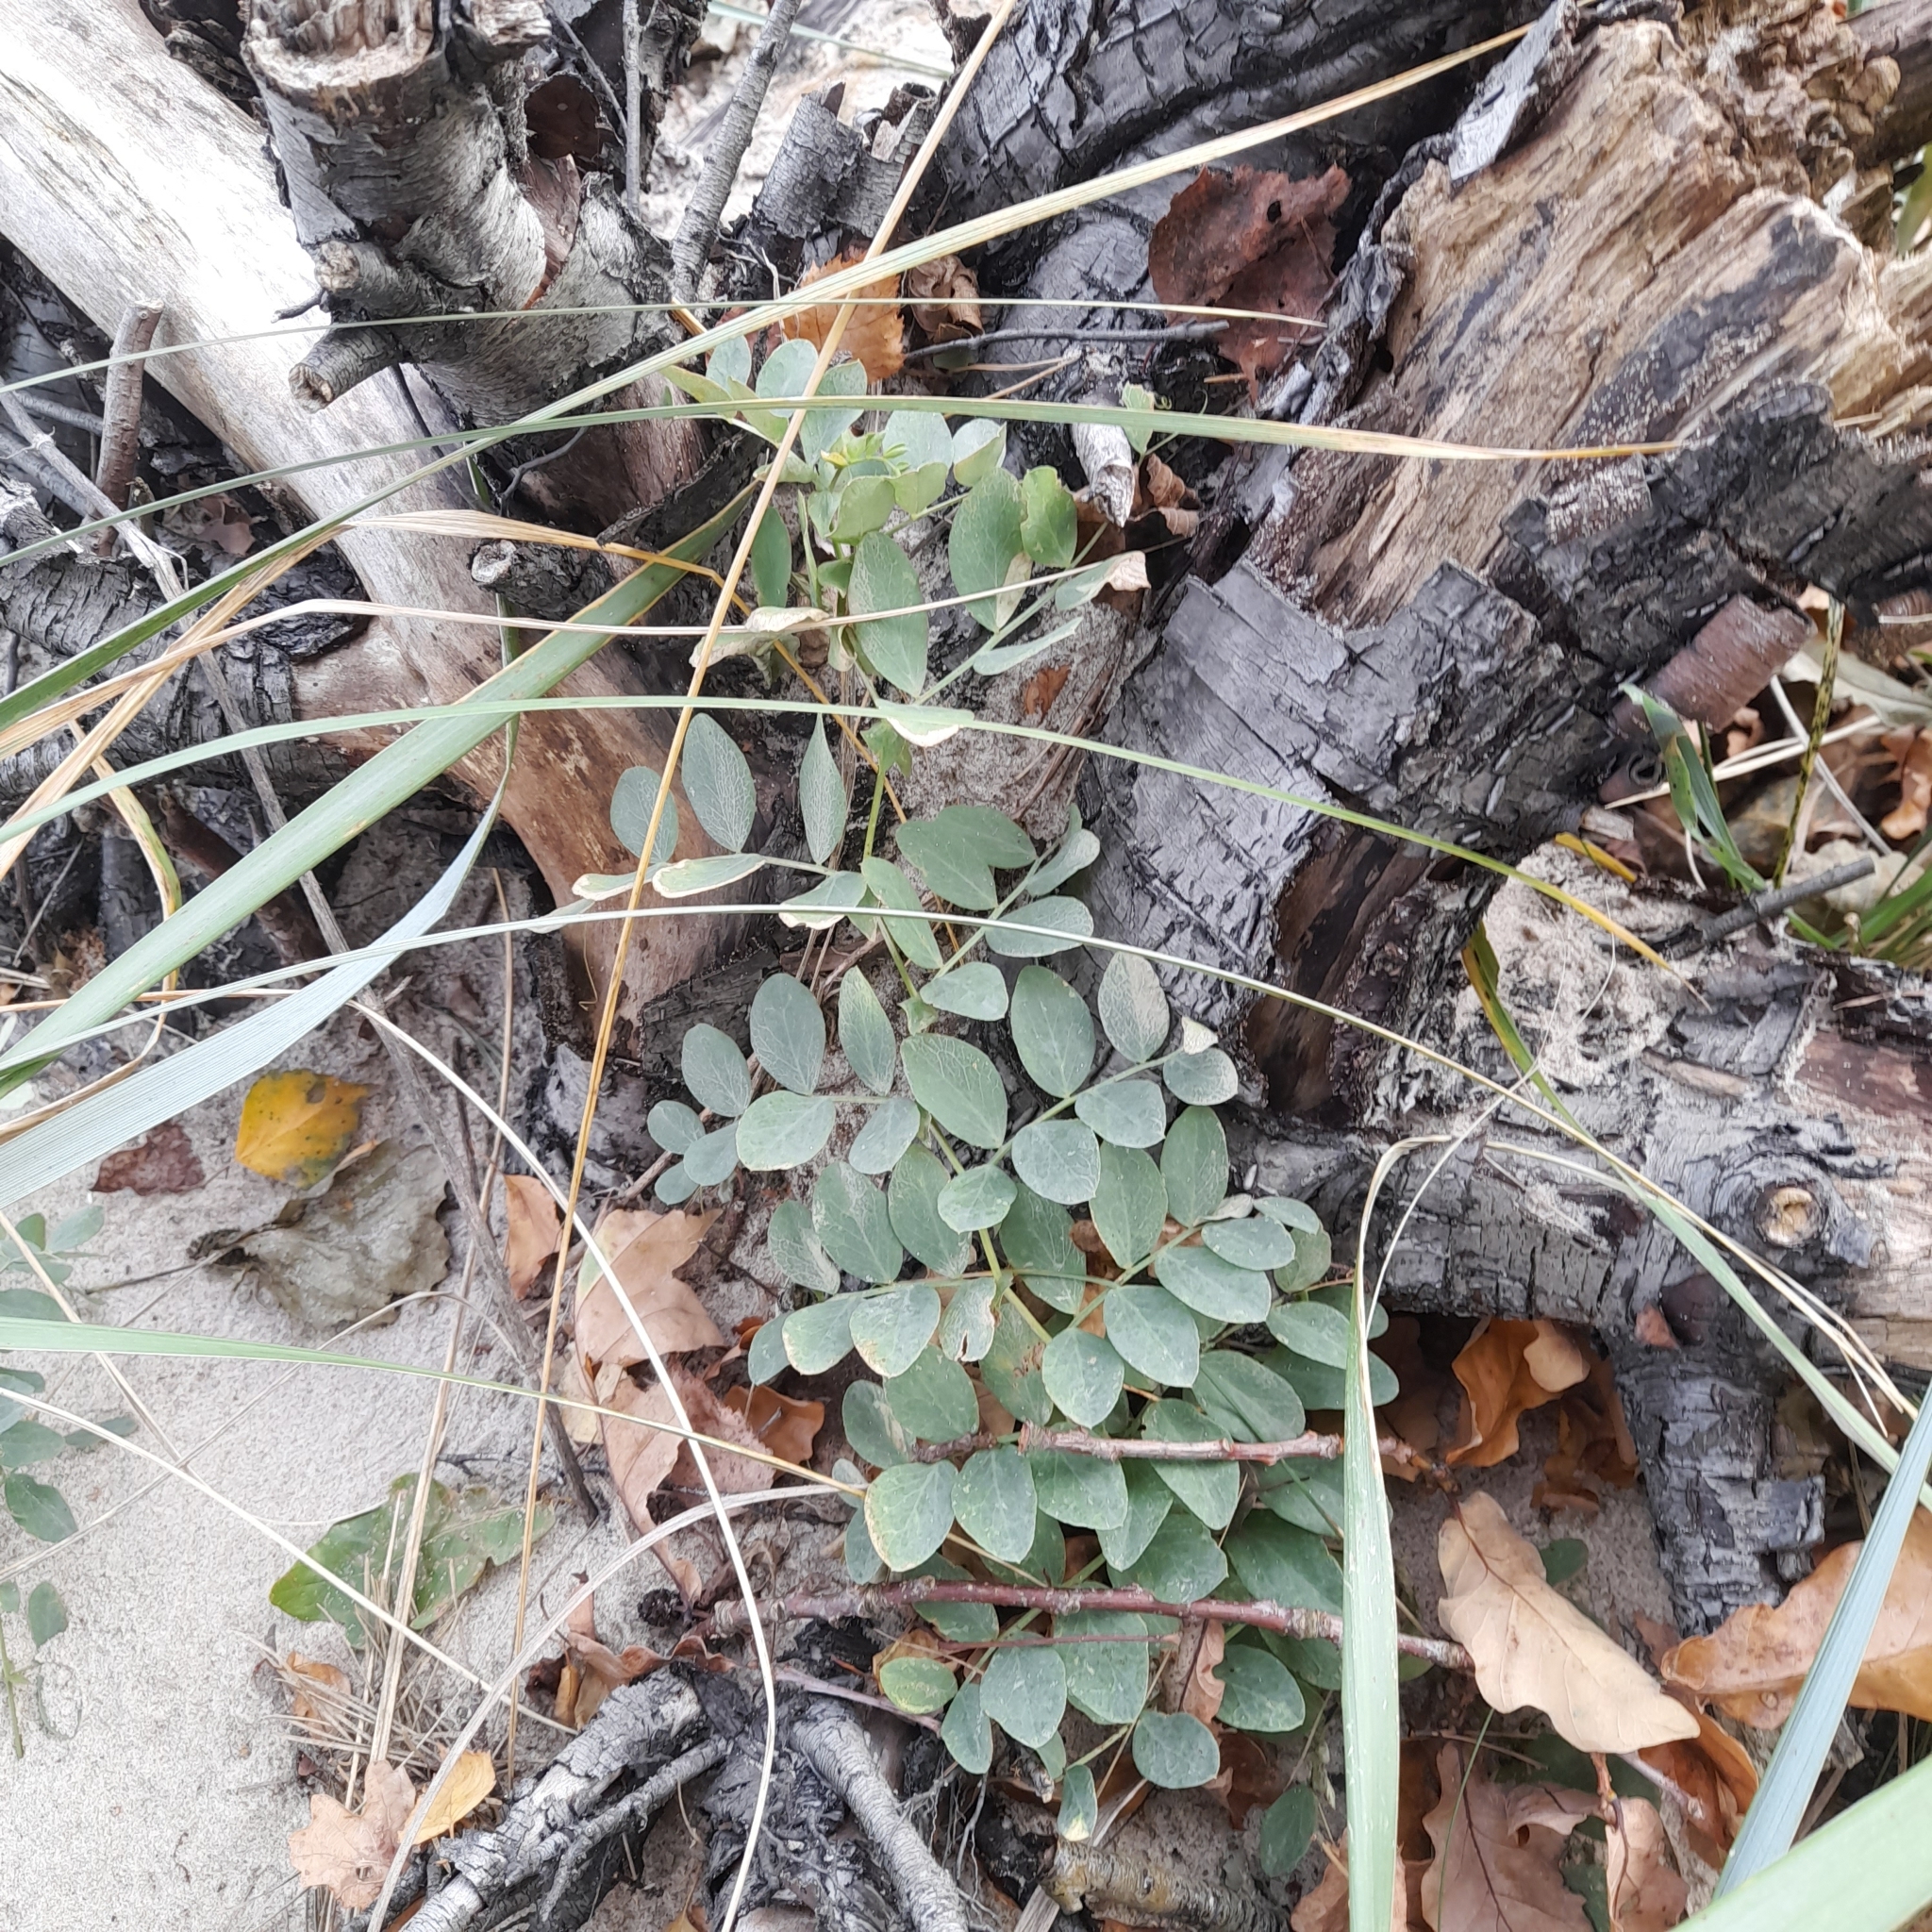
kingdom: Plantae
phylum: Tracheophyta
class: Magnoliopsida
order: Fabales
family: Fabaceae
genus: Lathyrus
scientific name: Lathyrus japonicus
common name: Sea pea
